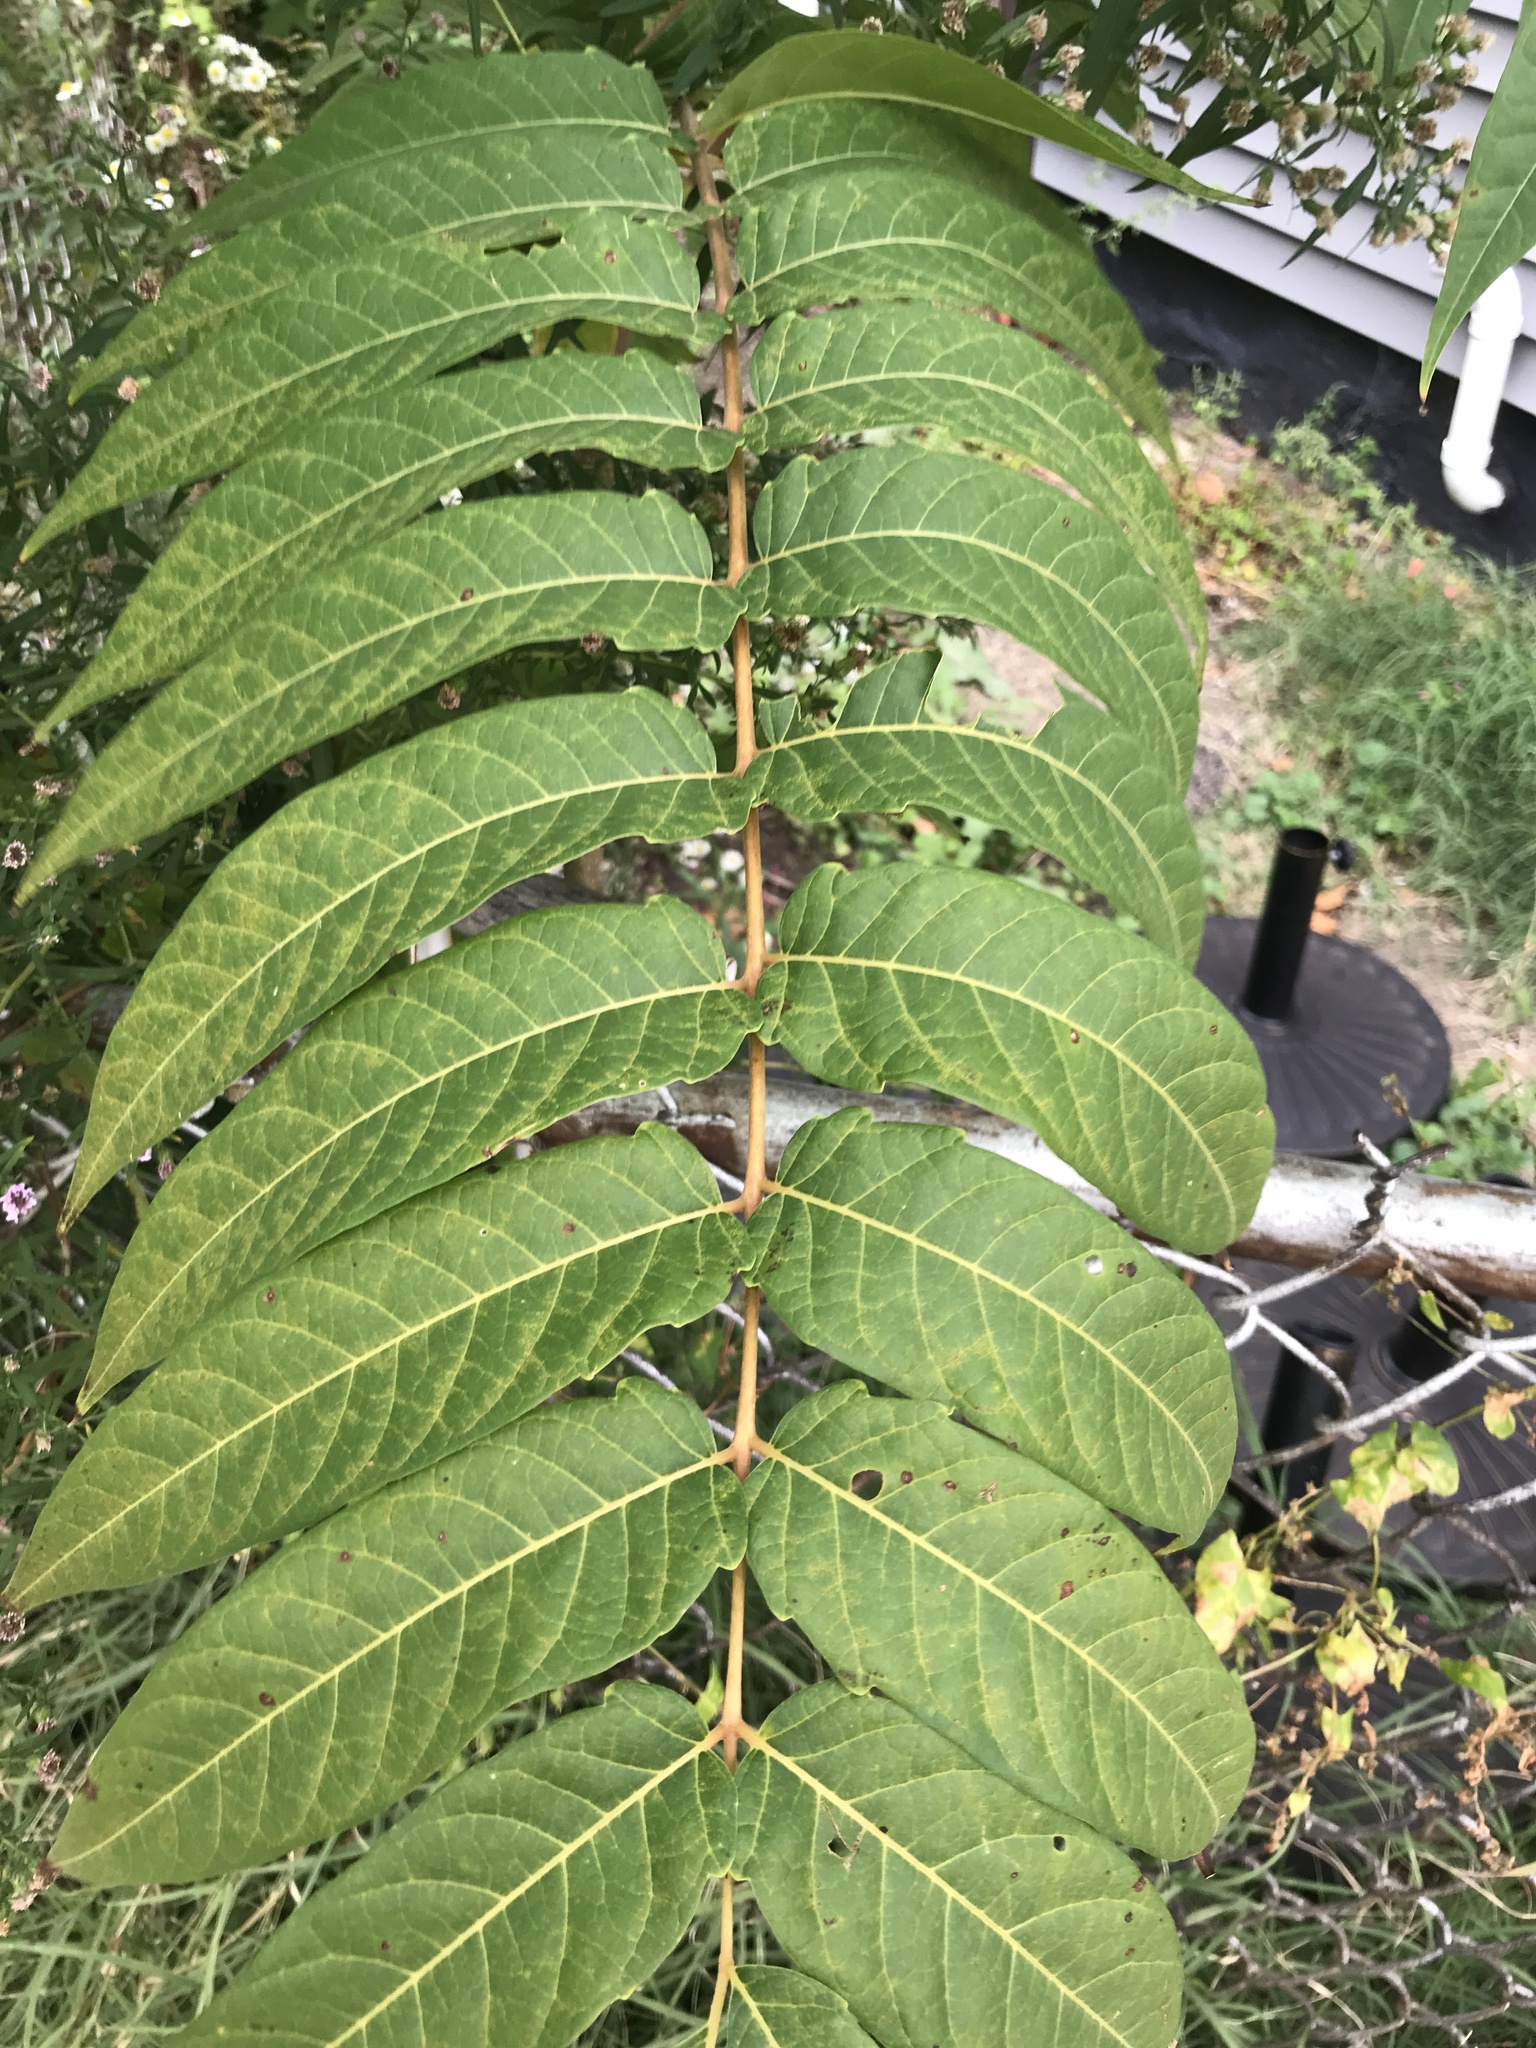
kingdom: Plantae
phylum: Tracheophyta
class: Magnoliopsida
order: Sapindales
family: Simaroubaceae
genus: Ailanthus
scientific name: Ailanthus altissima
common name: Tree-of-heaven
